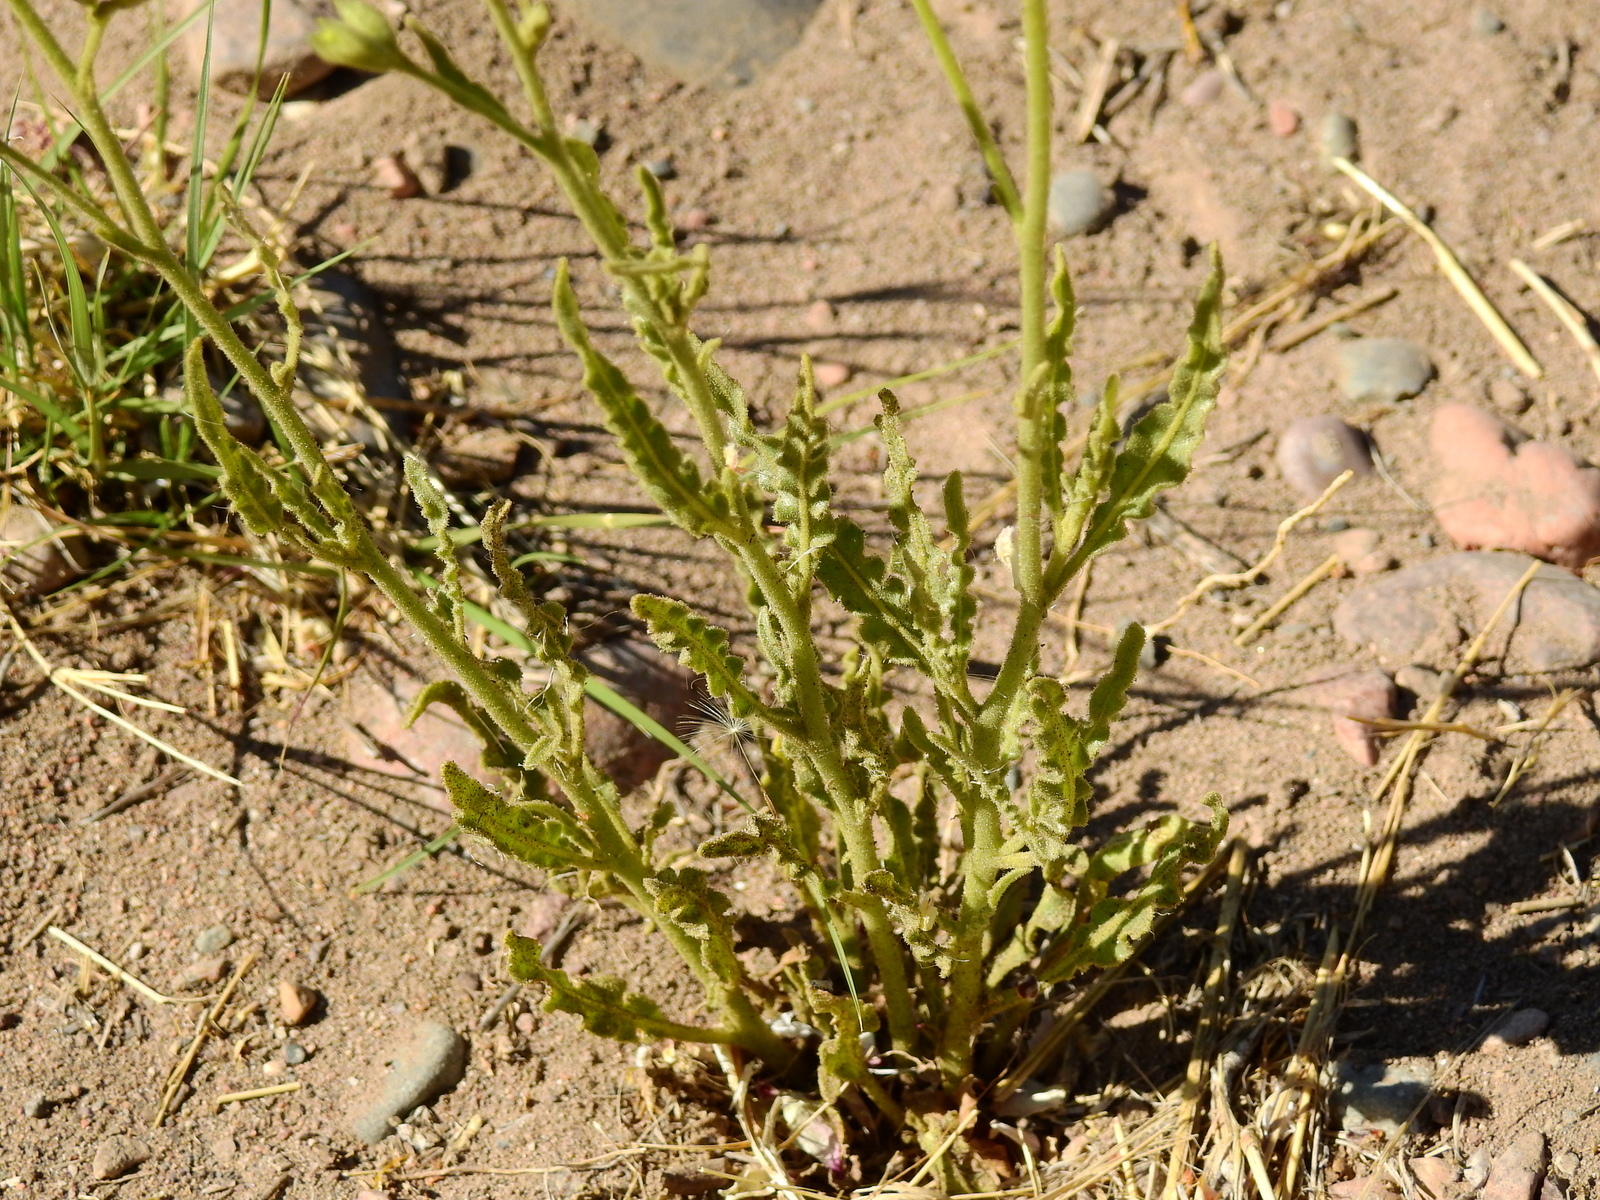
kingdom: Plantae
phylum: Tracheophyta
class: Magnoliopsida
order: Solanales
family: Solanaceae
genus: Nicotiana
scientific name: Nicotiana noctiflora
